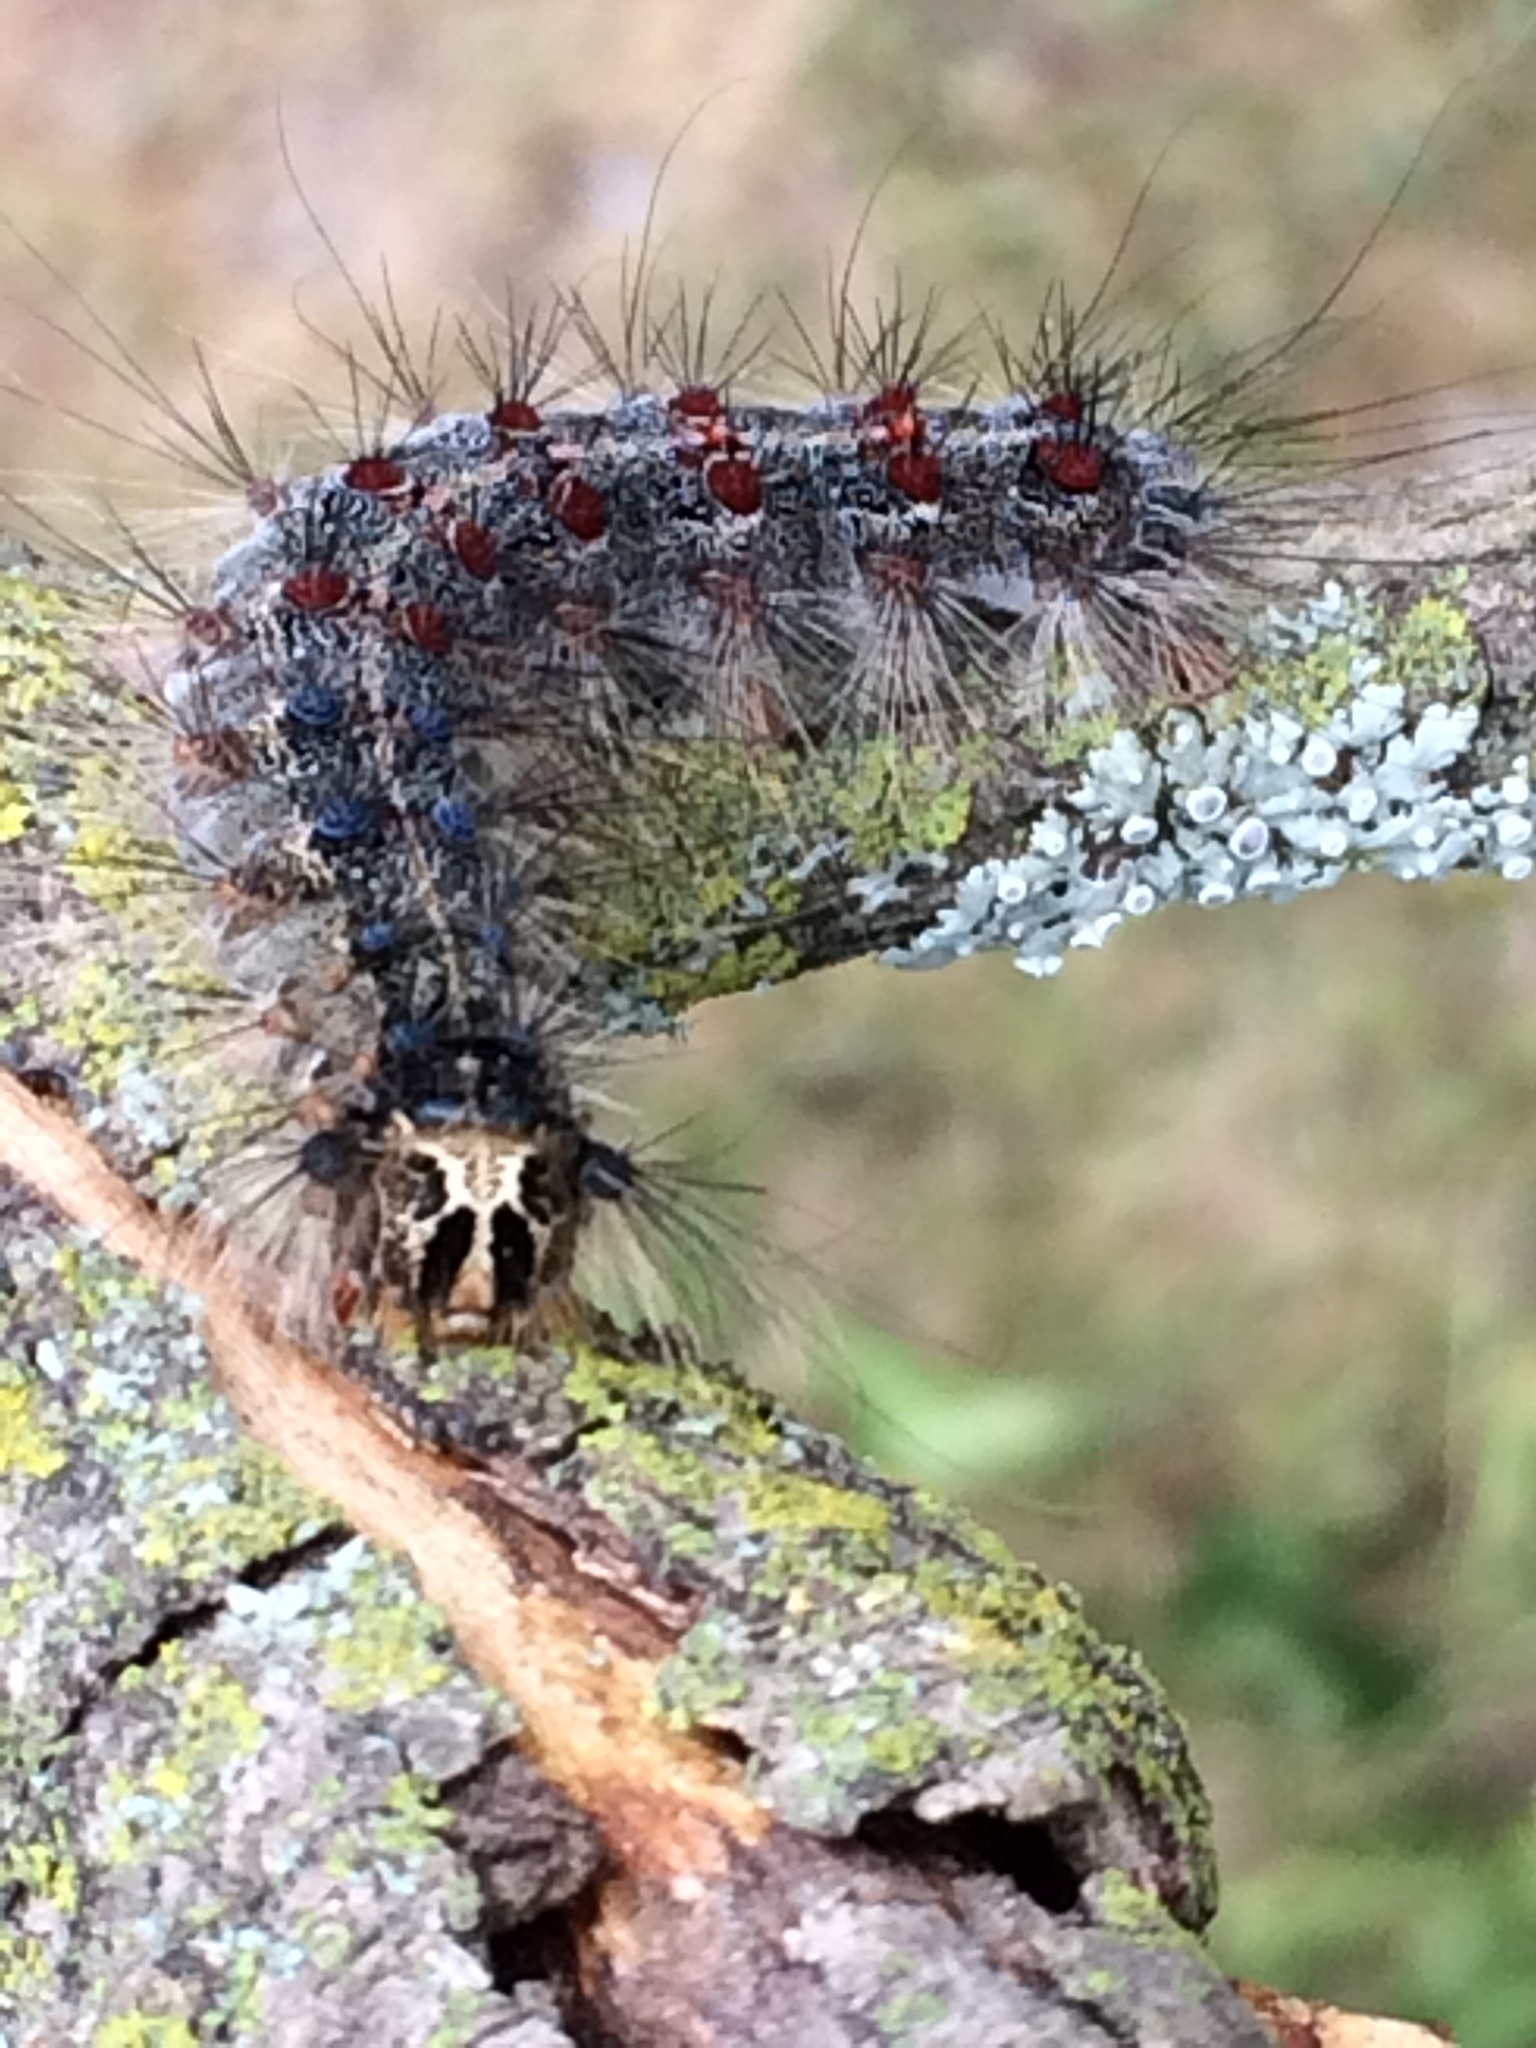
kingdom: Animalia
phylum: Arthropoda
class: Insecta
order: Lepidoptera
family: Erebidae
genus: Lymantria
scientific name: Lymantria dispar
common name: Gypsy moth
